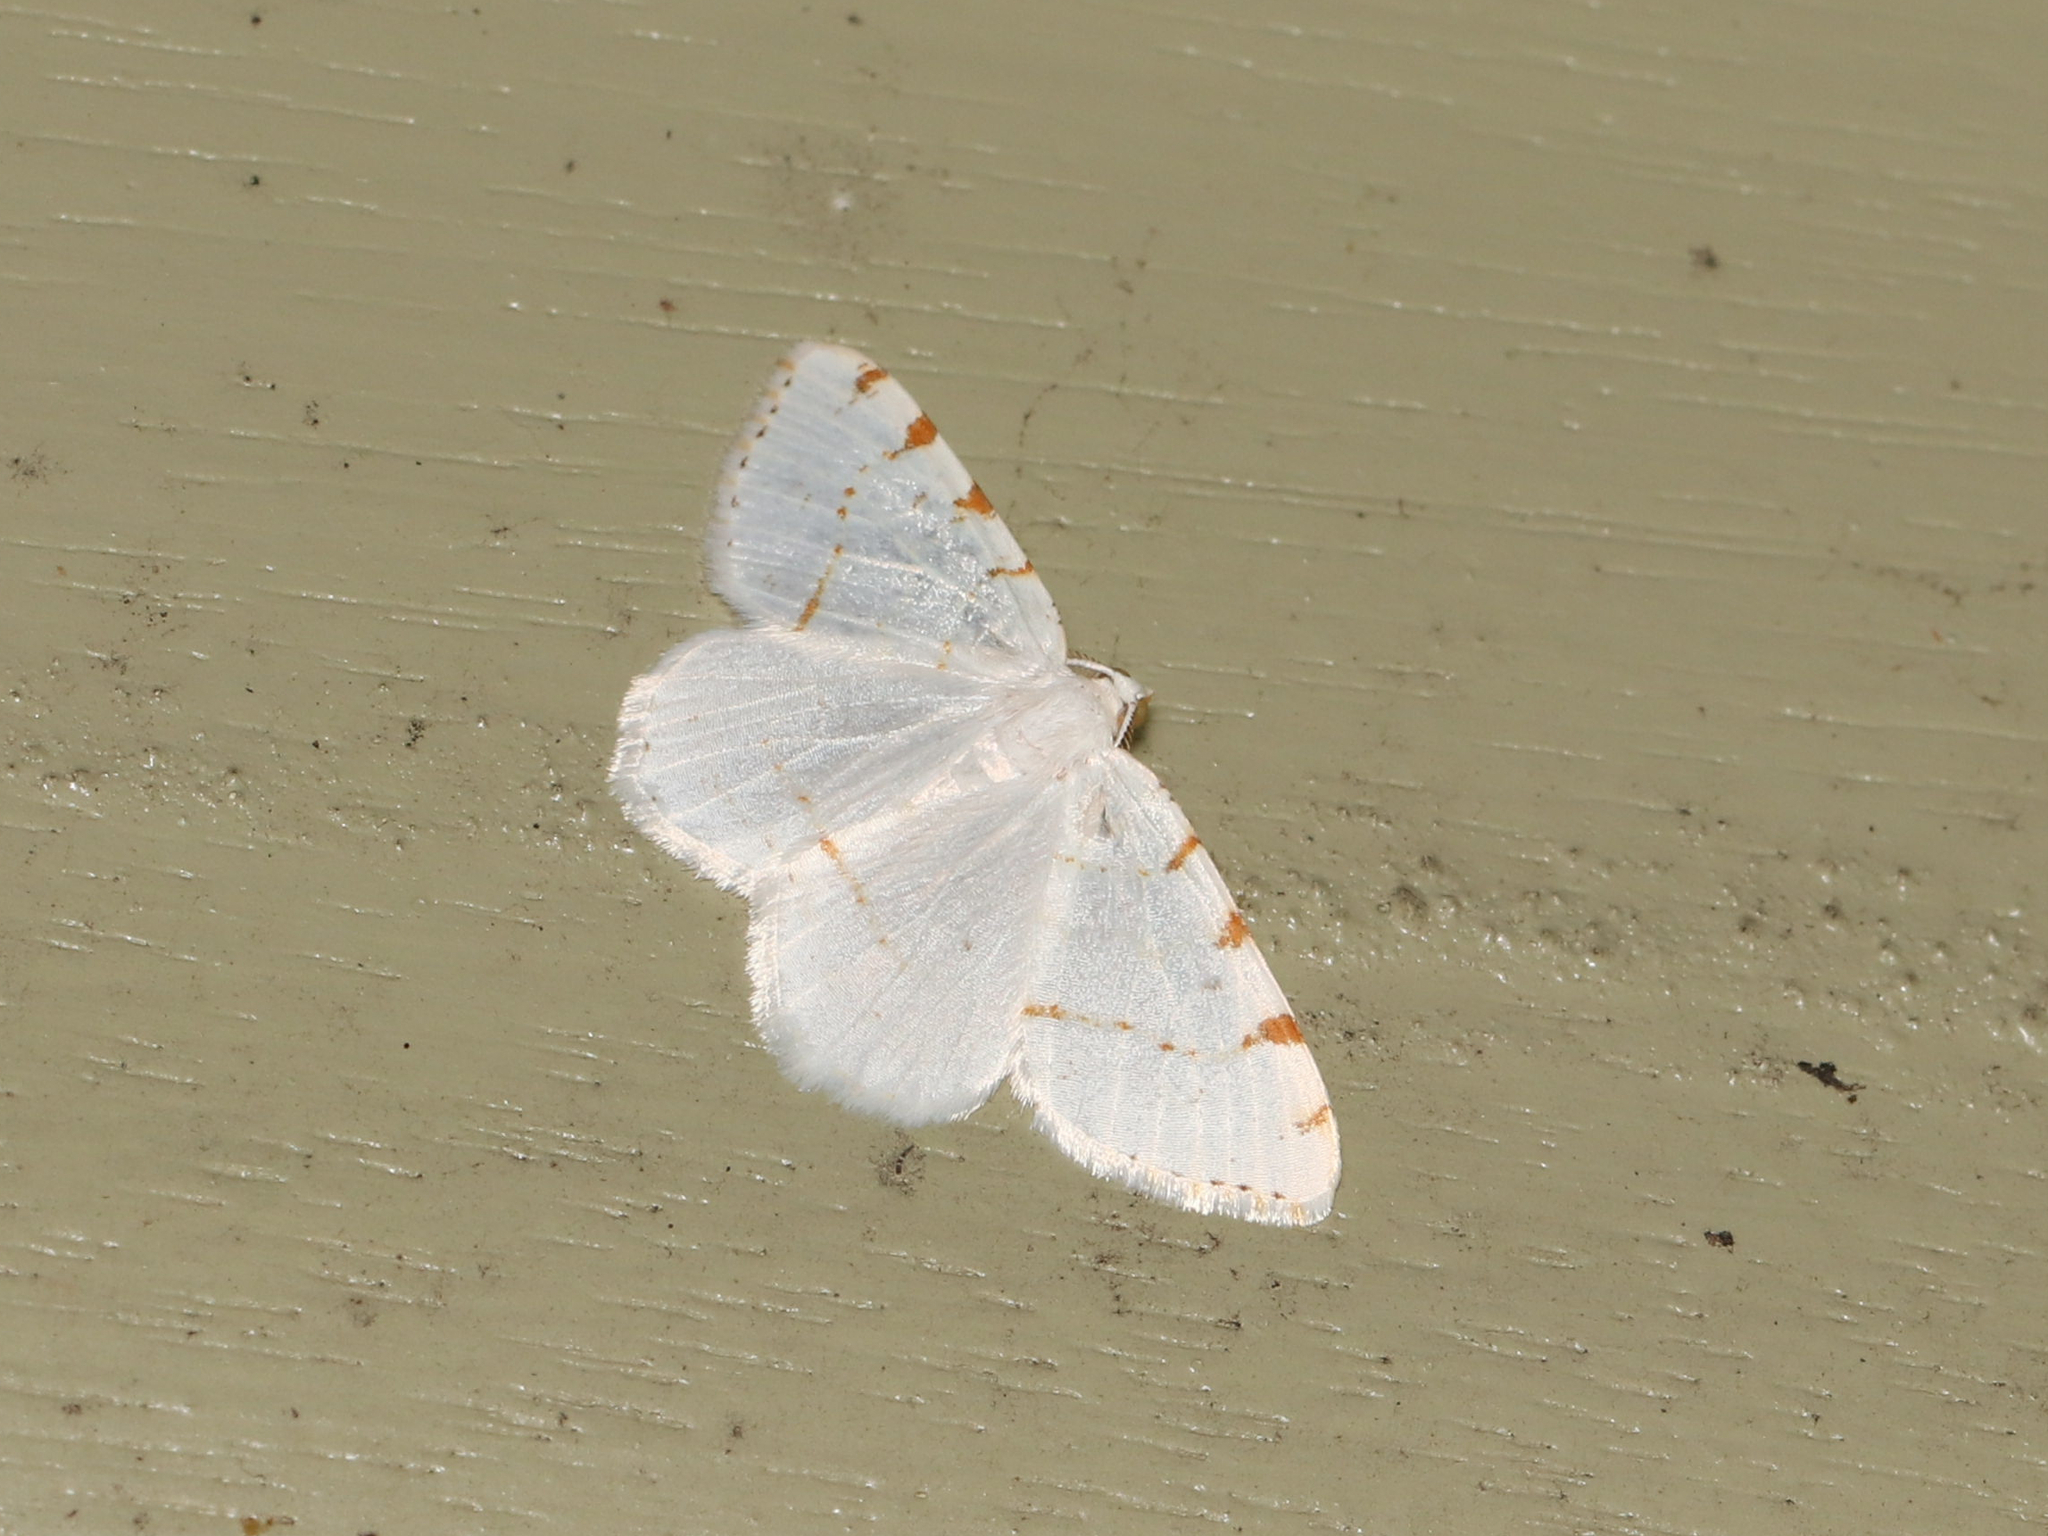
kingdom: Animalia
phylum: Arthropoda
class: Insecta
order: Lepidoptera
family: Geometridae
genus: Macaria
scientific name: Macaria pustularia
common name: Lesser maple spanworm moth
